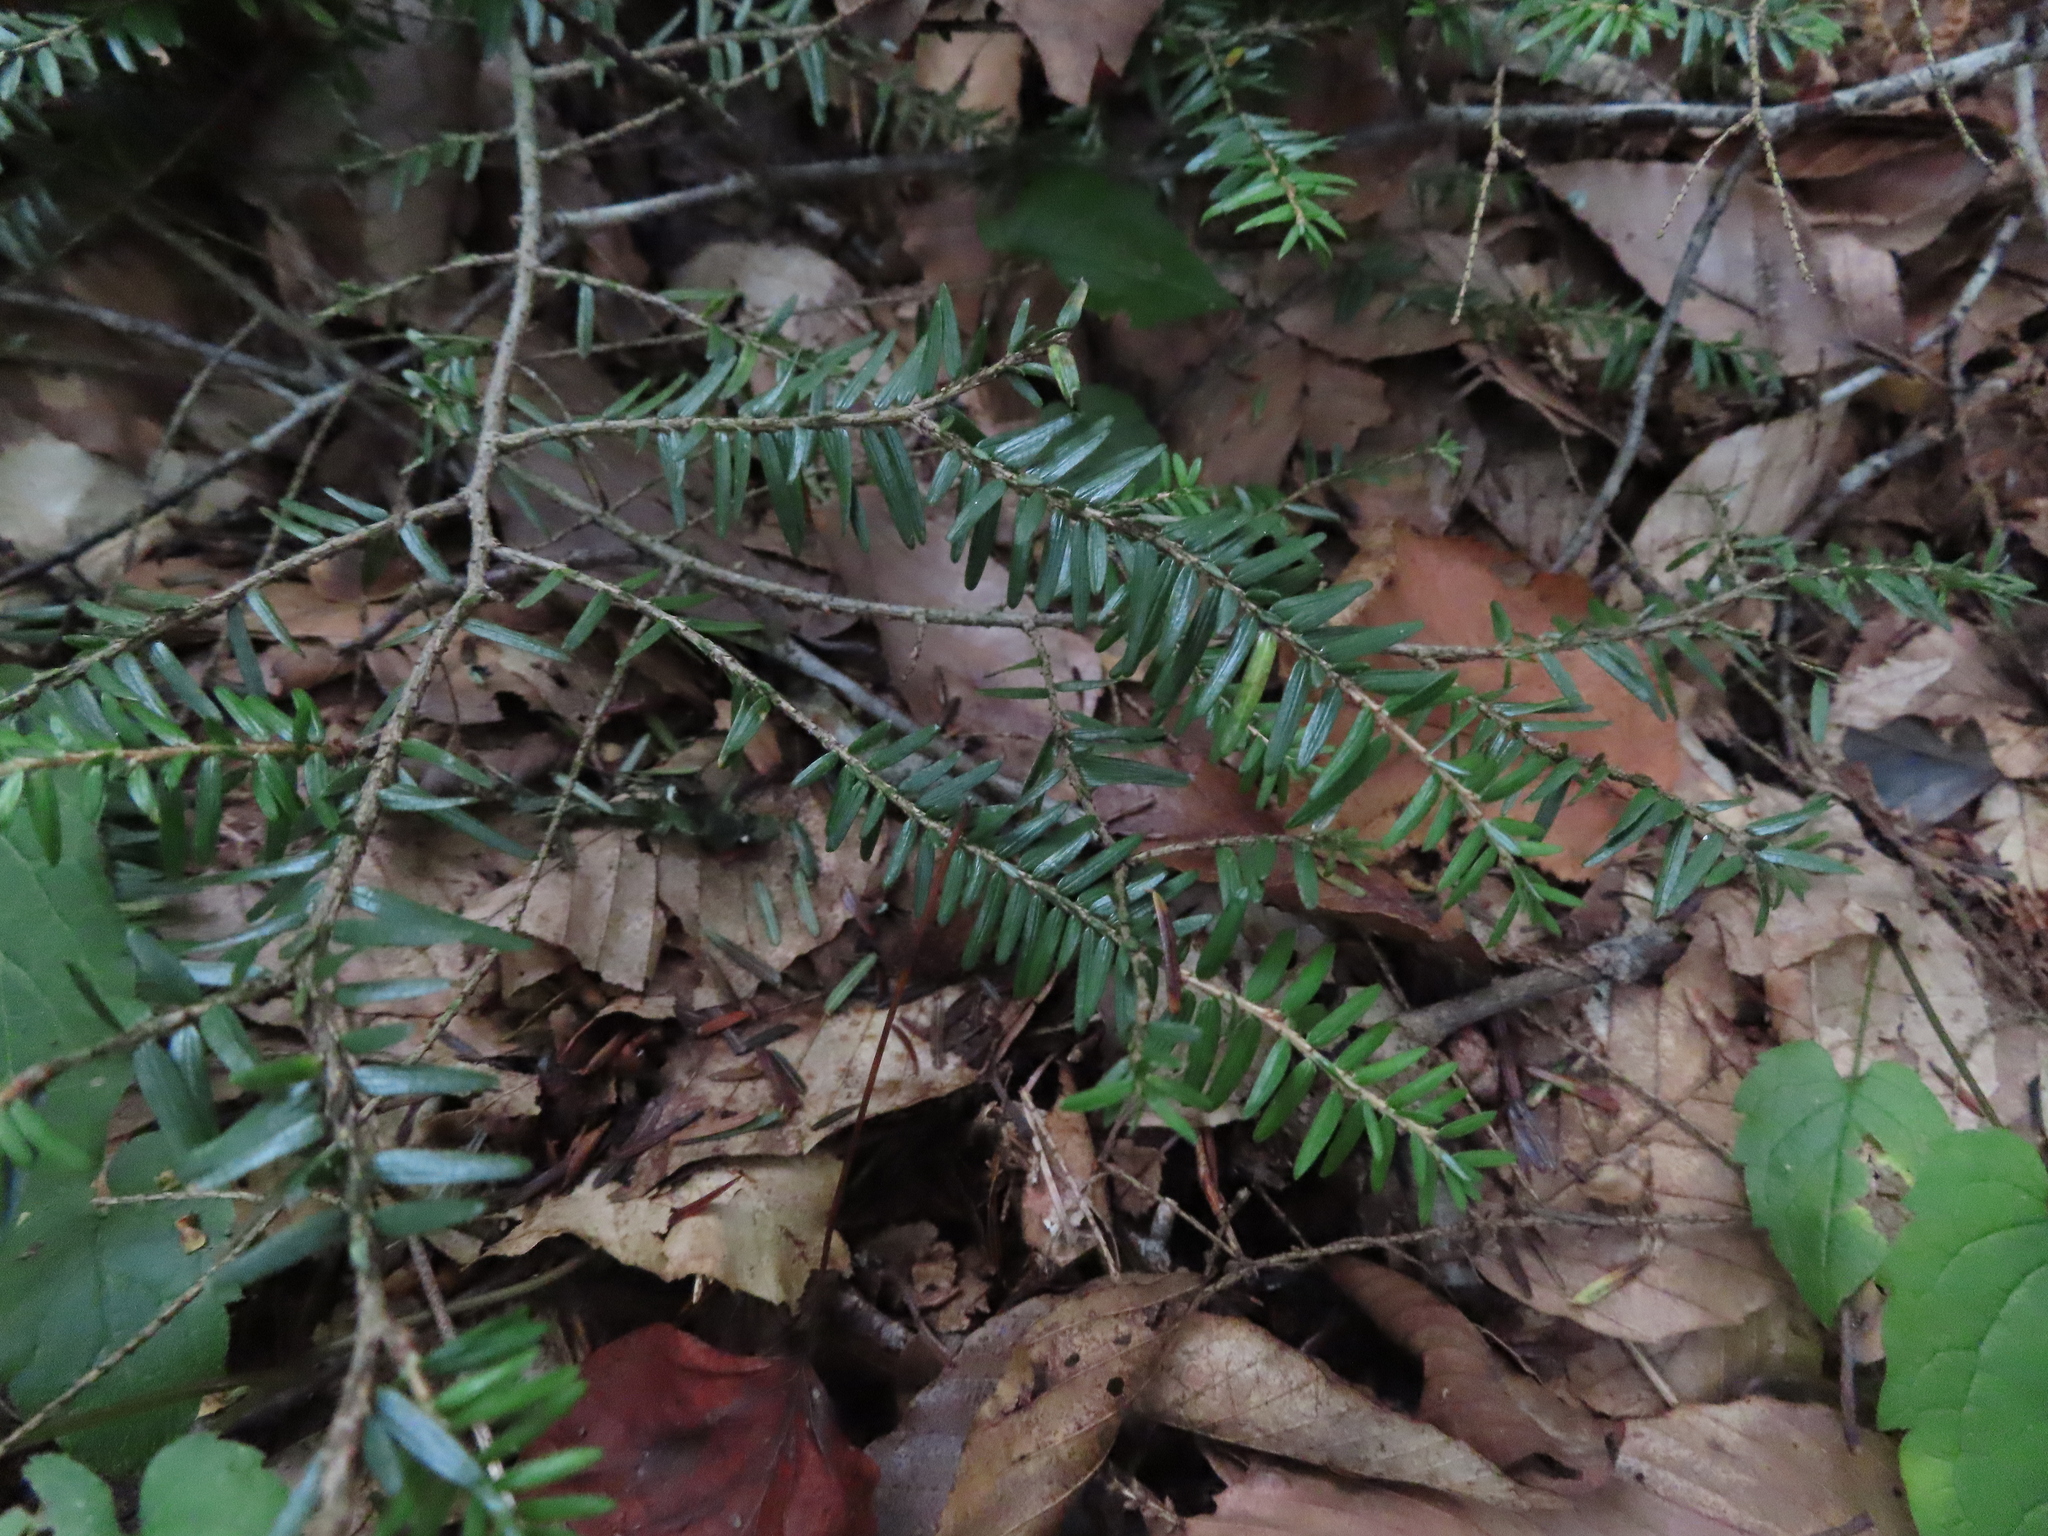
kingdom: Plantae
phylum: Tracheophyta
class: Pinopsida
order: Pinales
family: Pinaceae
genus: Tsuga
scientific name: Tsuga canadensis
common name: Eastern hemlock
